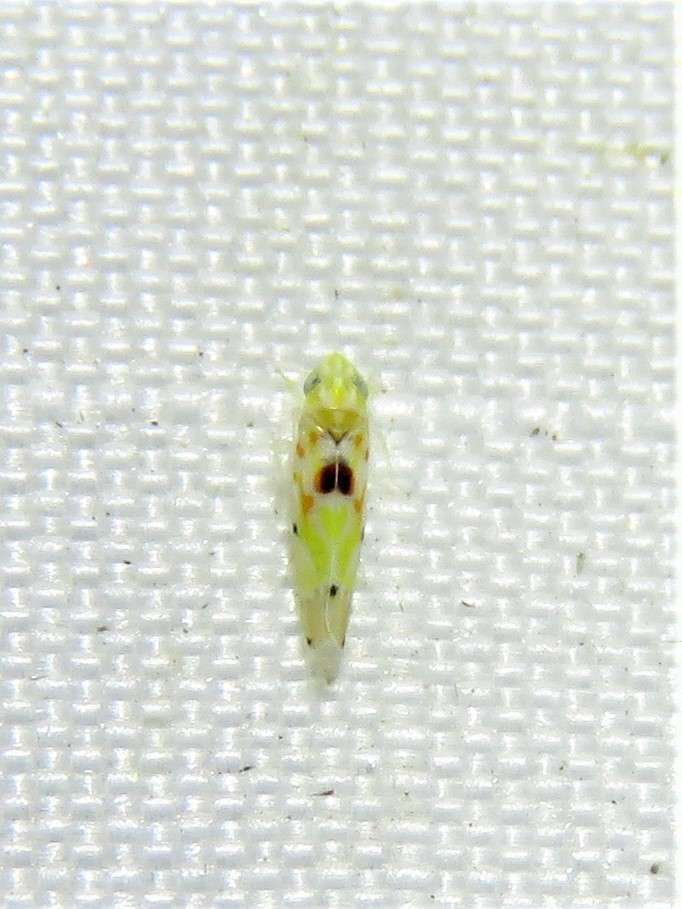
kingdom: Animalia
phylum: Arthropoda
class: Insecta
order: Hemiptera
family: Cicadellidae
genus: Erythroneura
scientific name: Erythroneura octonotata
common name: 8-spotted leafhopper
